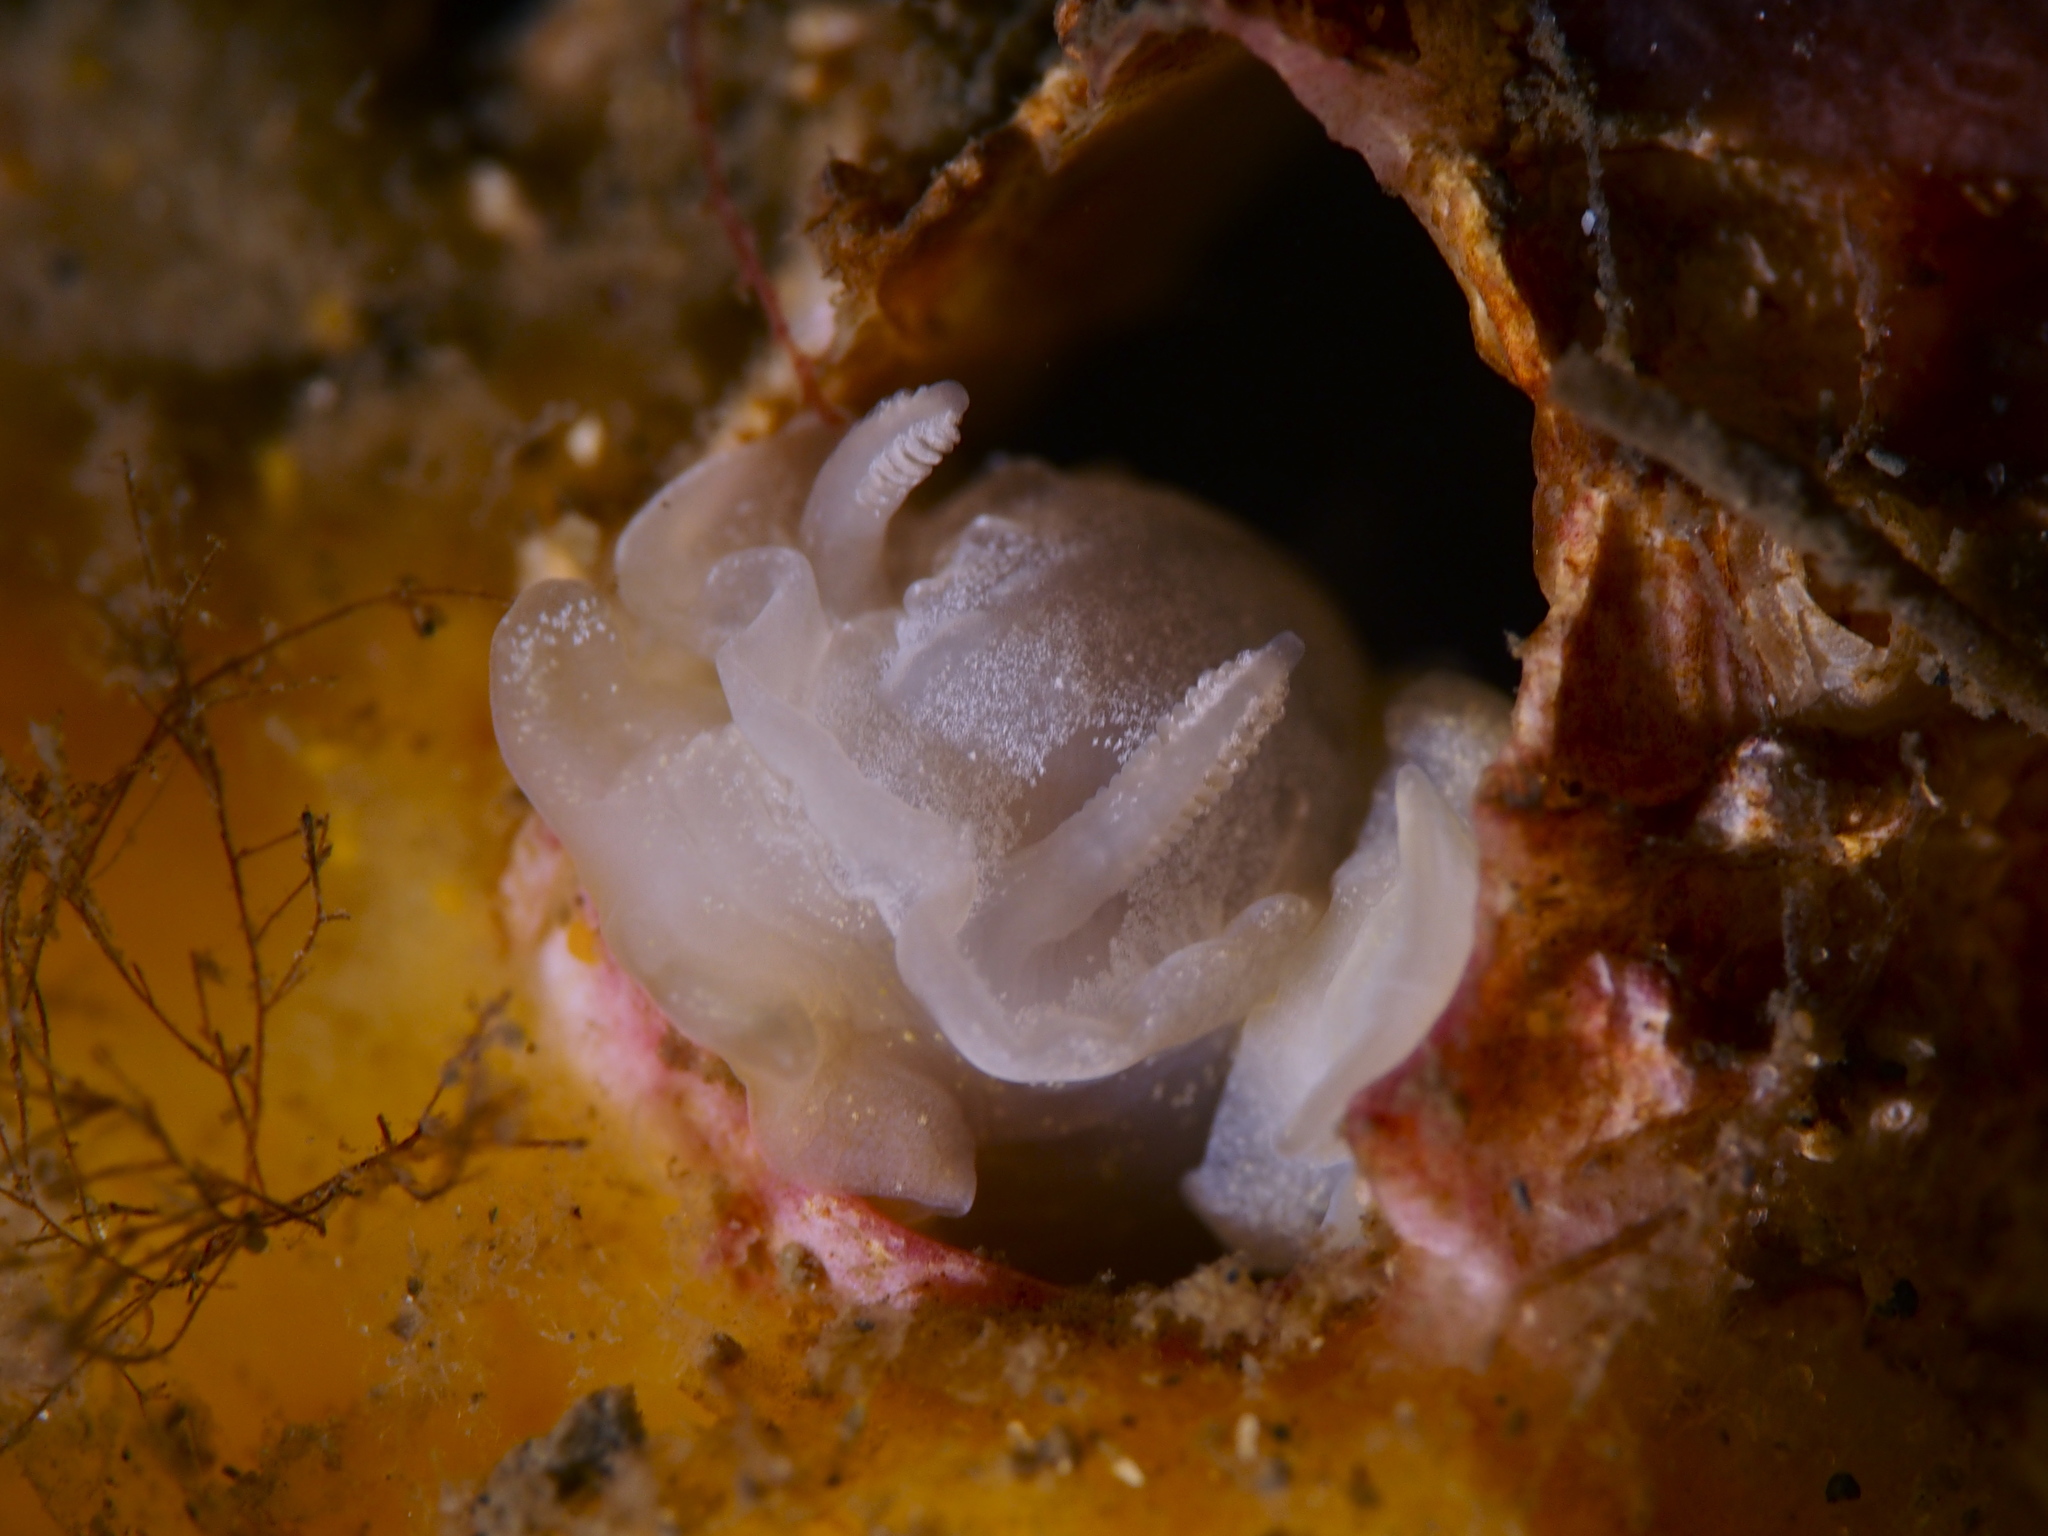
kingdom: Animalia
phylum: Mollusca
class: Gastropoda
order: Nudibranchia
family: Goniodorididae
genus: Okenia
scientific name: Okenia
